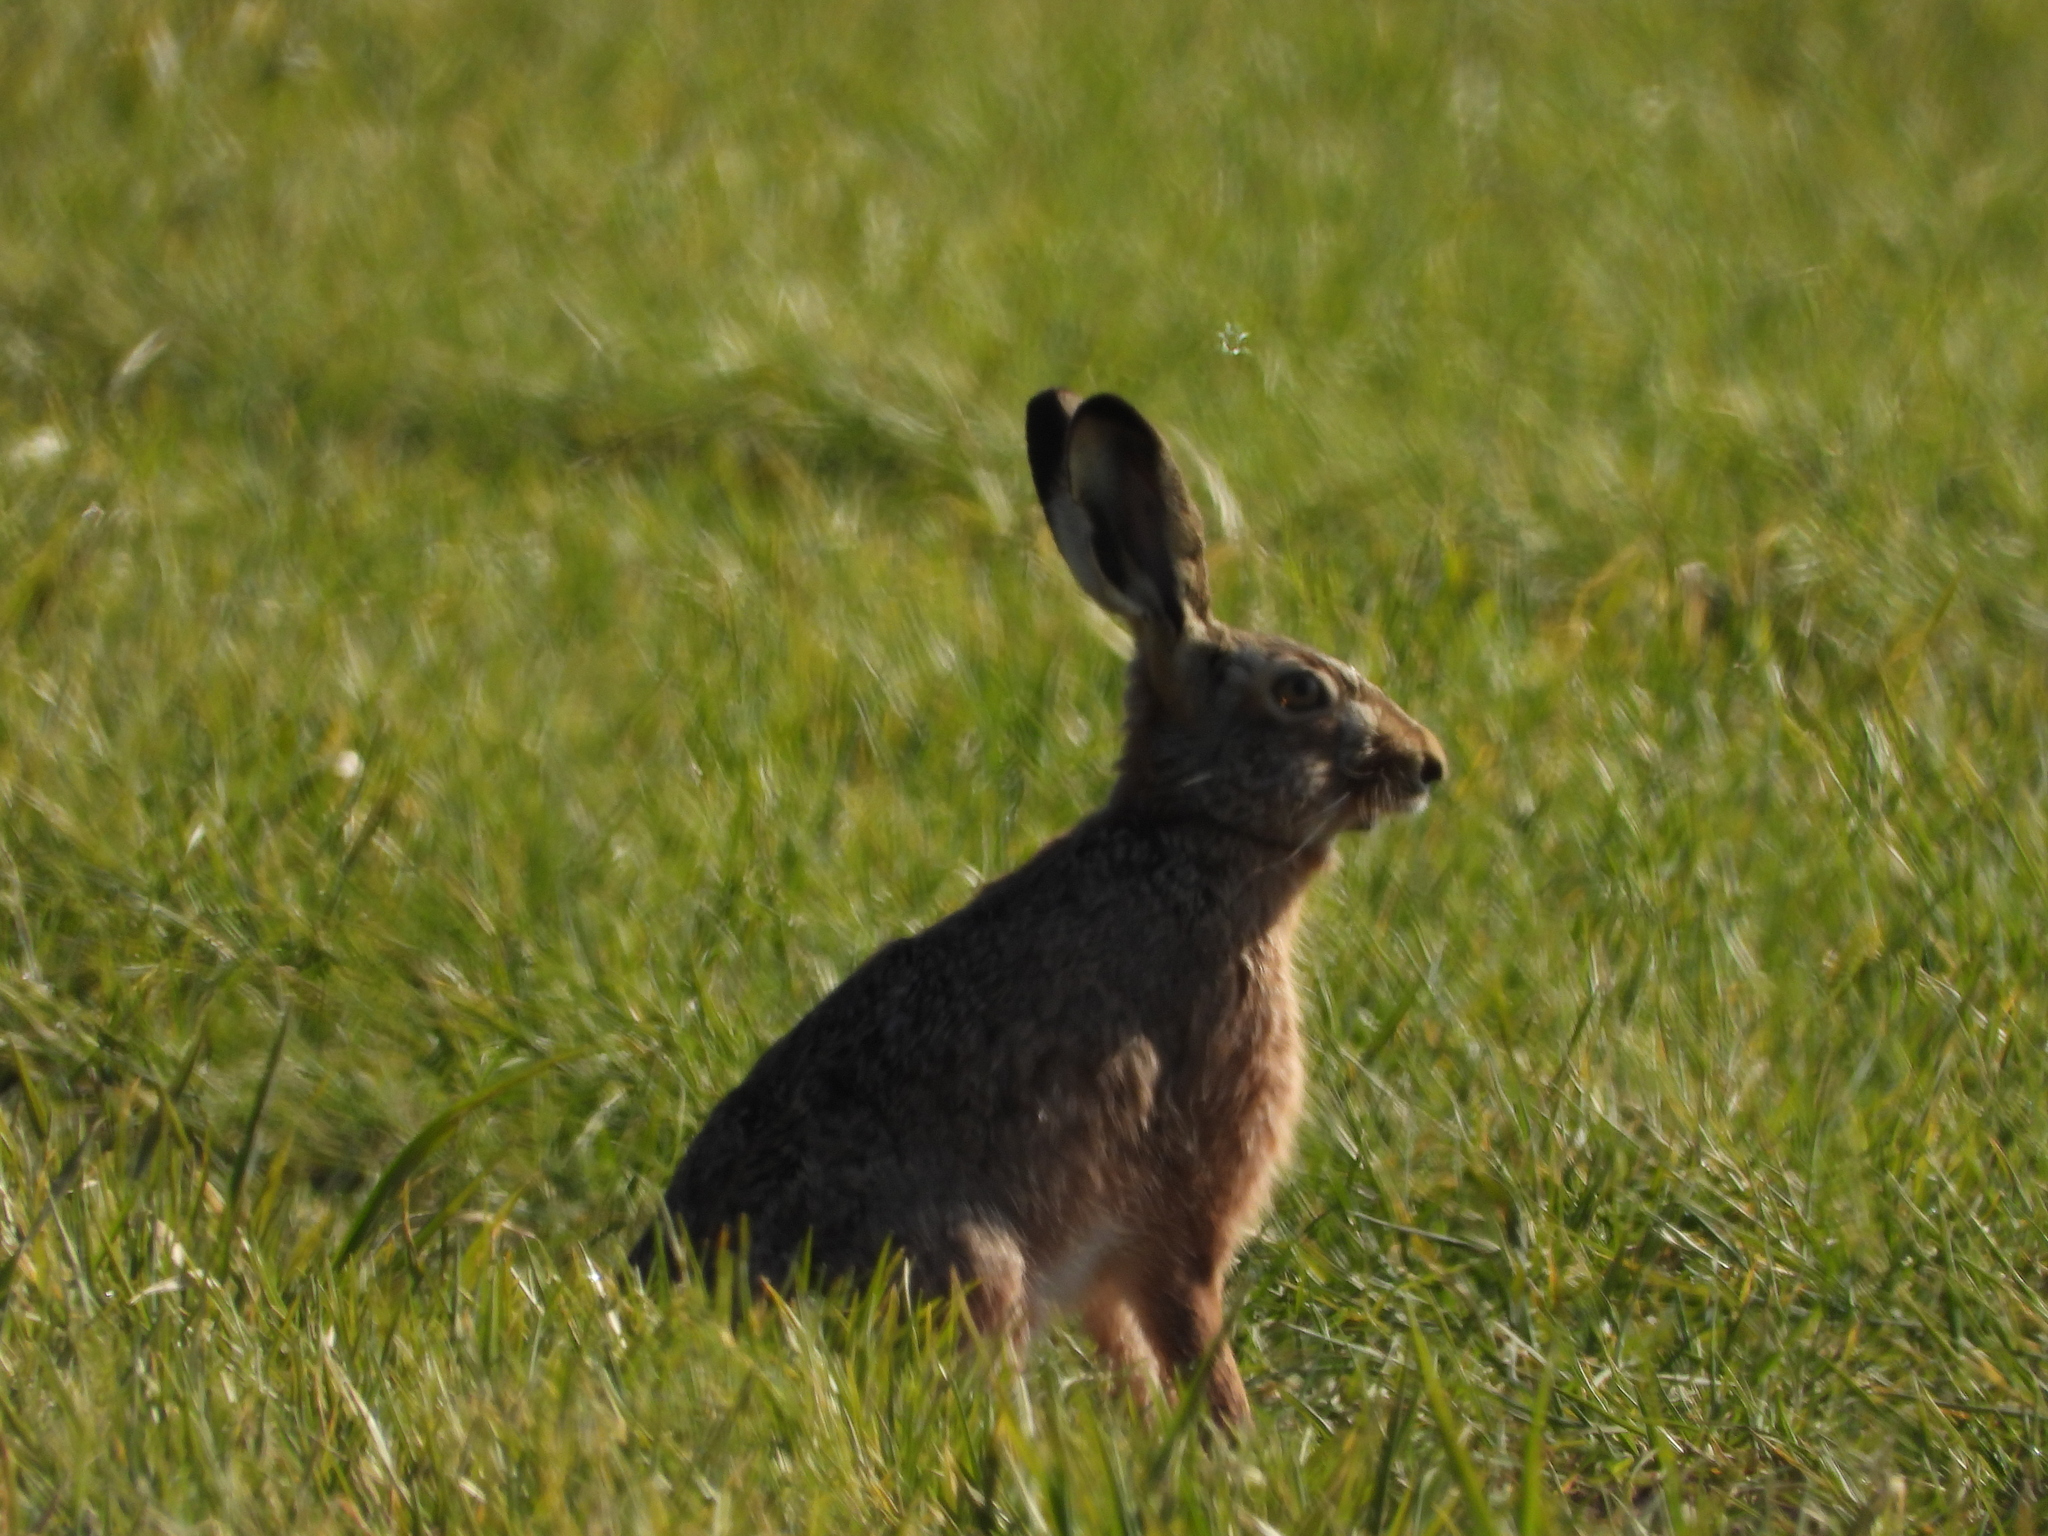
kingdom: Animalia
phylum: Chordata
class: Mammalia
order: Lagomorpha
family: Leporidae
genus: Lepus
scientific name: Lepus europaeus
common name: European hare
